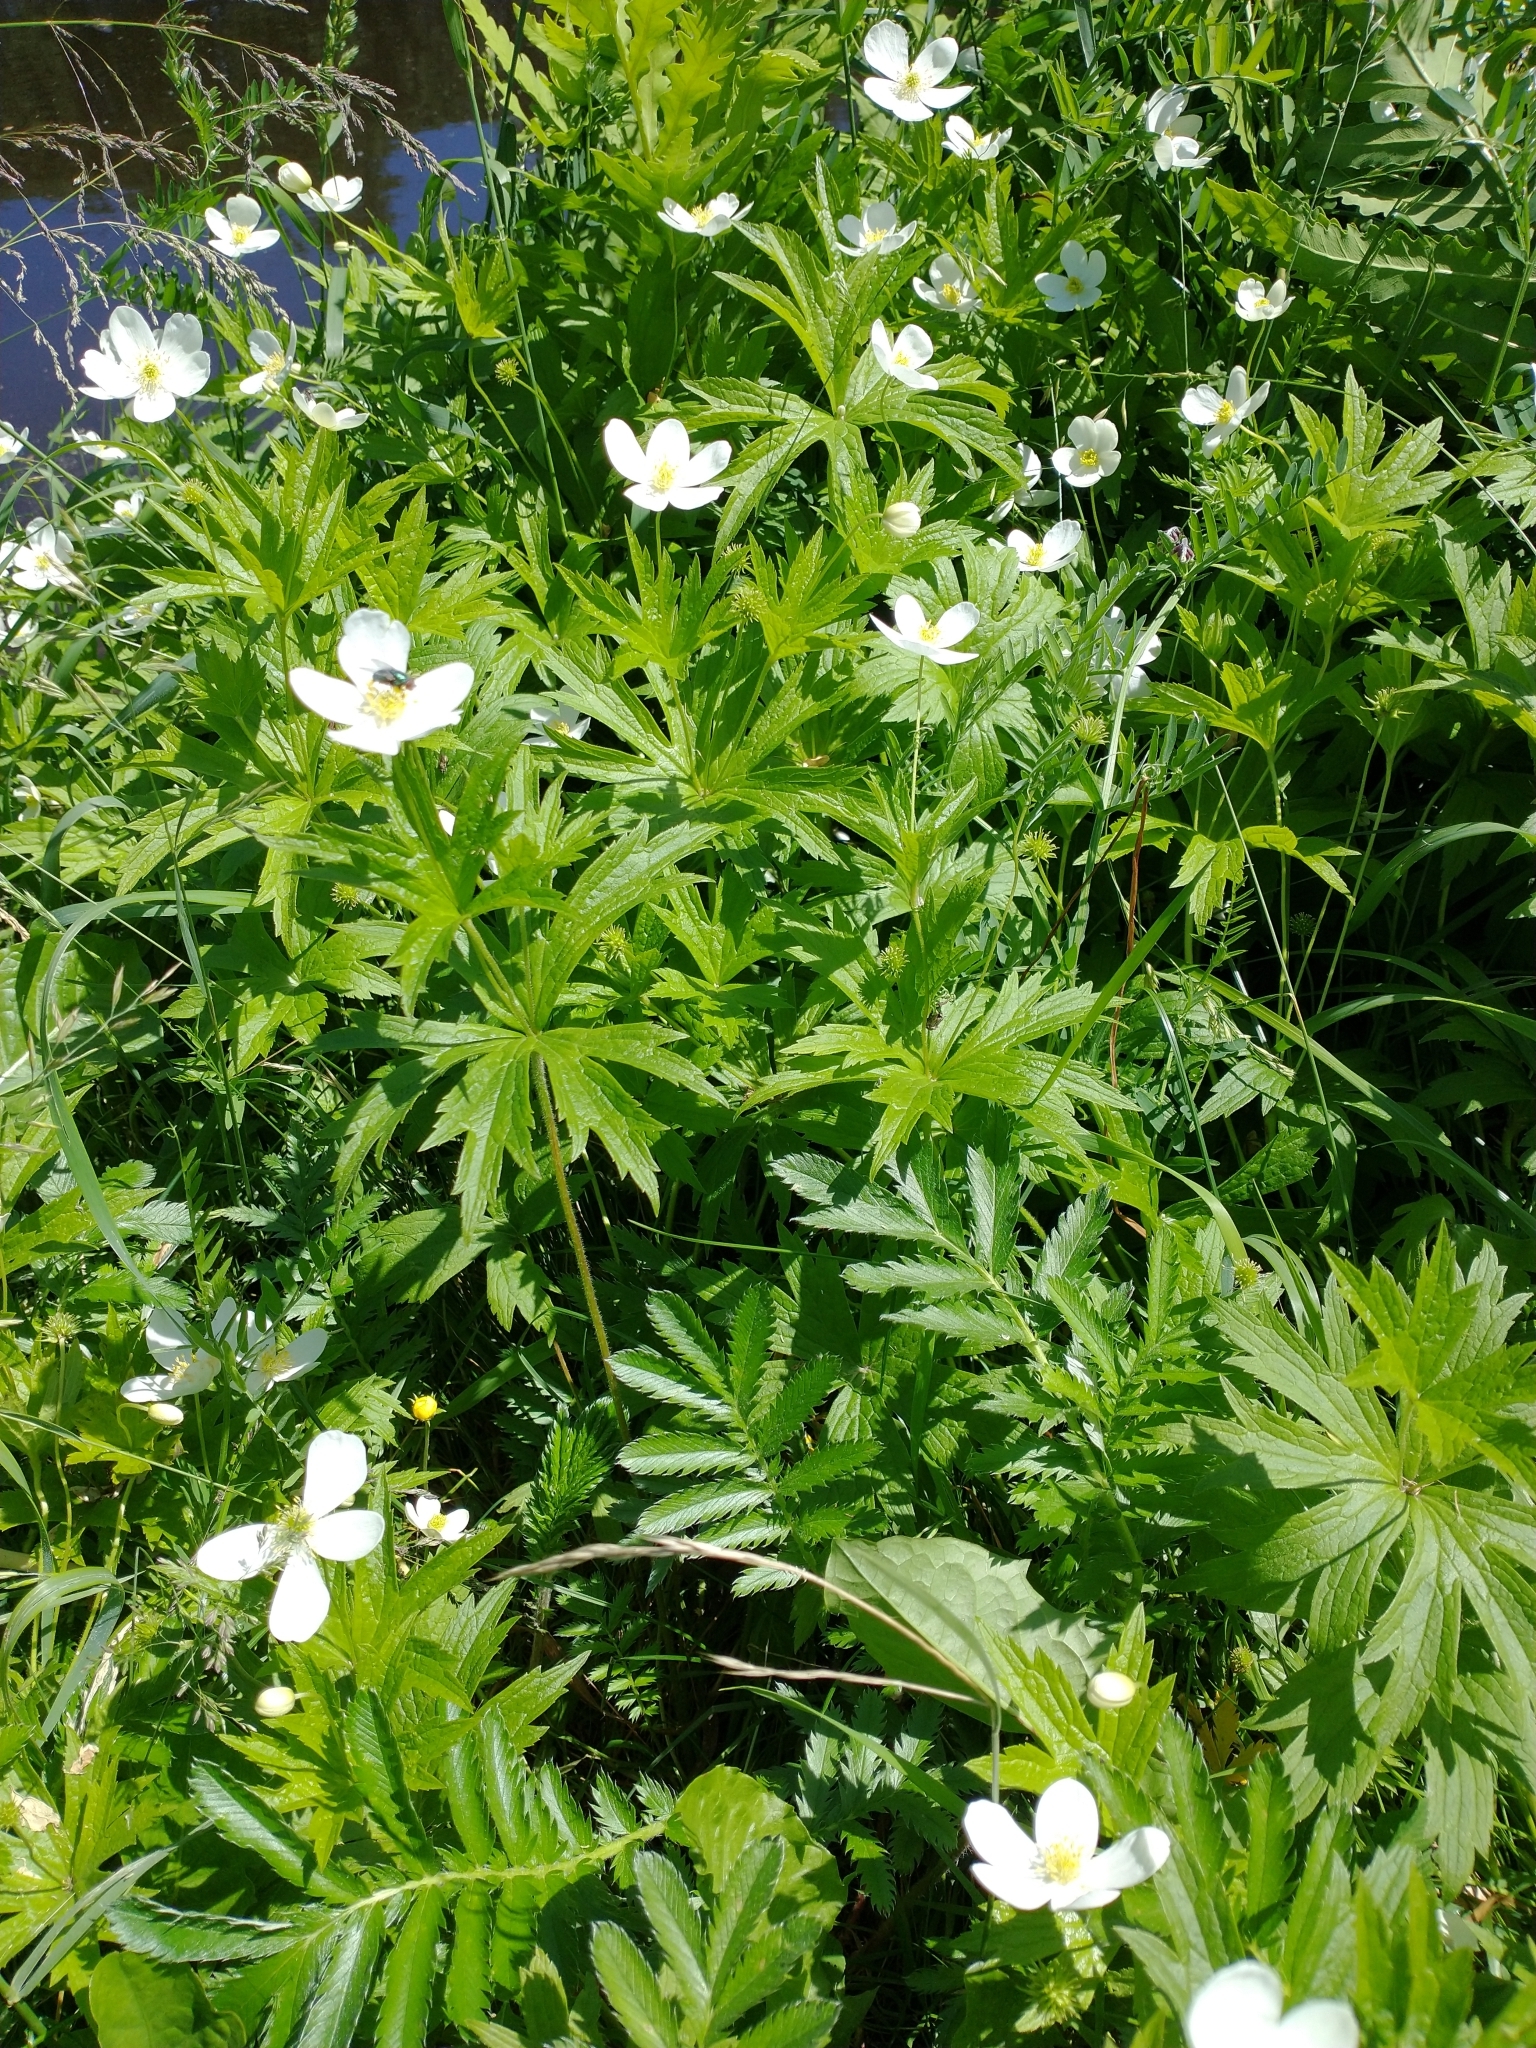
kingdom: Plantae
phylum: Tracheophyta
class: Magnoliopsida
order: Ranunculales
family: Ranunculaceae
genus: Anemonastrum
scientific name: Anemonastrum canadense
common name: Canada anemone
